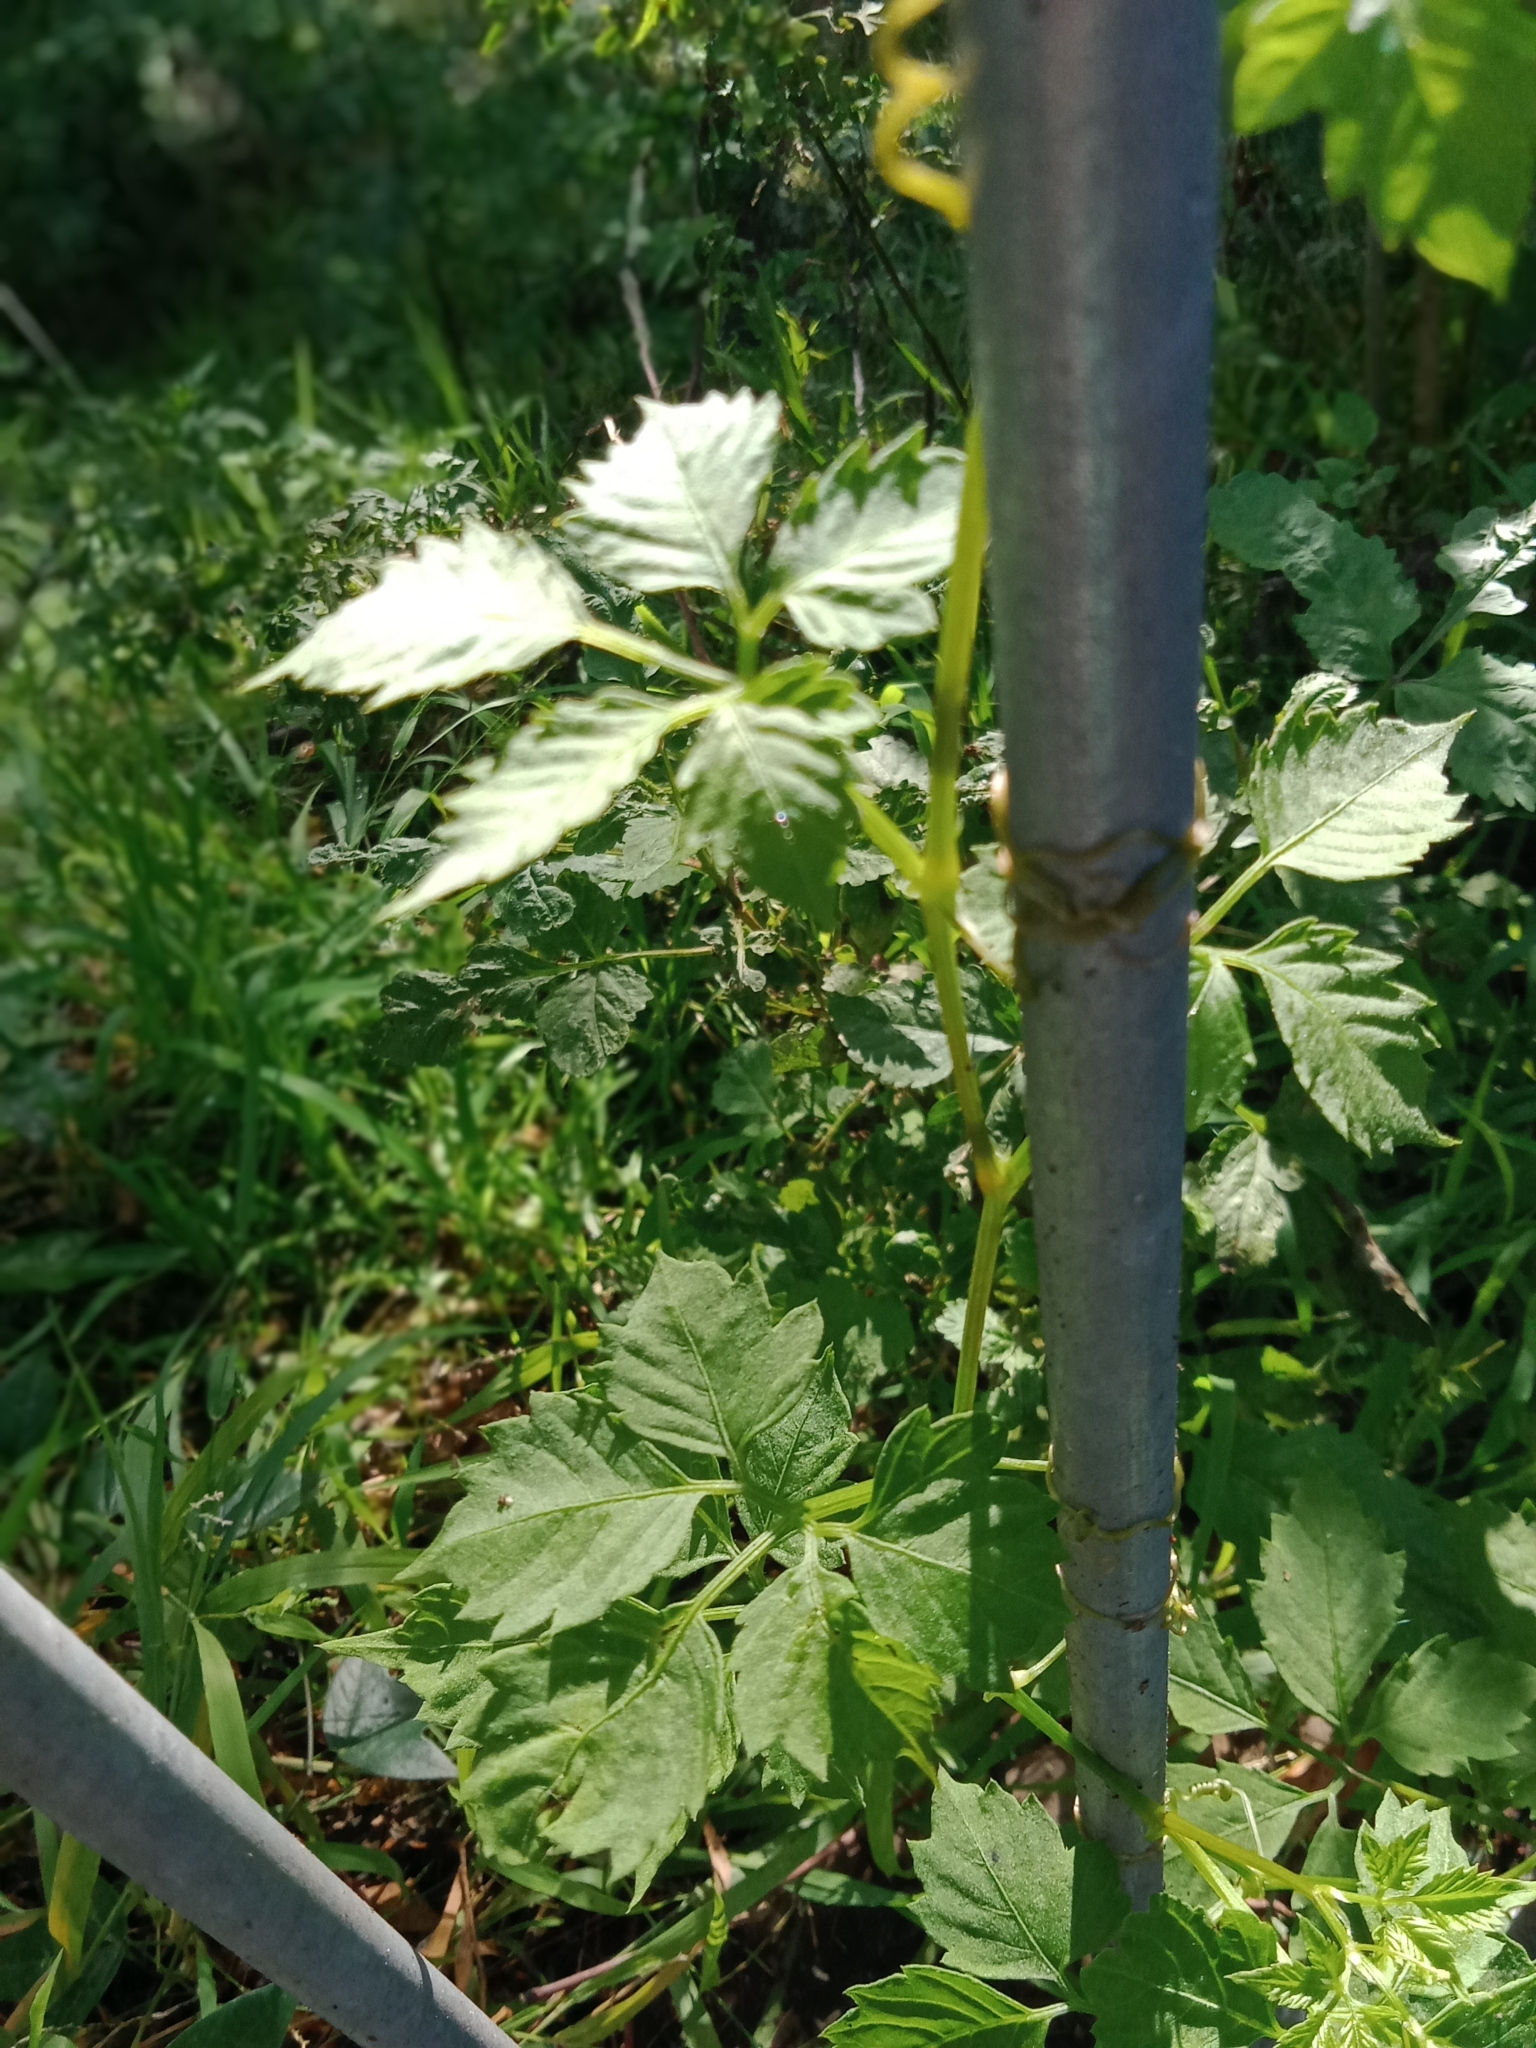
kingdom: Plantae
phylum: Tracheophyta
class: Magnoliopsida
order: Vitales
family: Vitaceae
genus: Causonis
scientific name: Causonis clematidea
